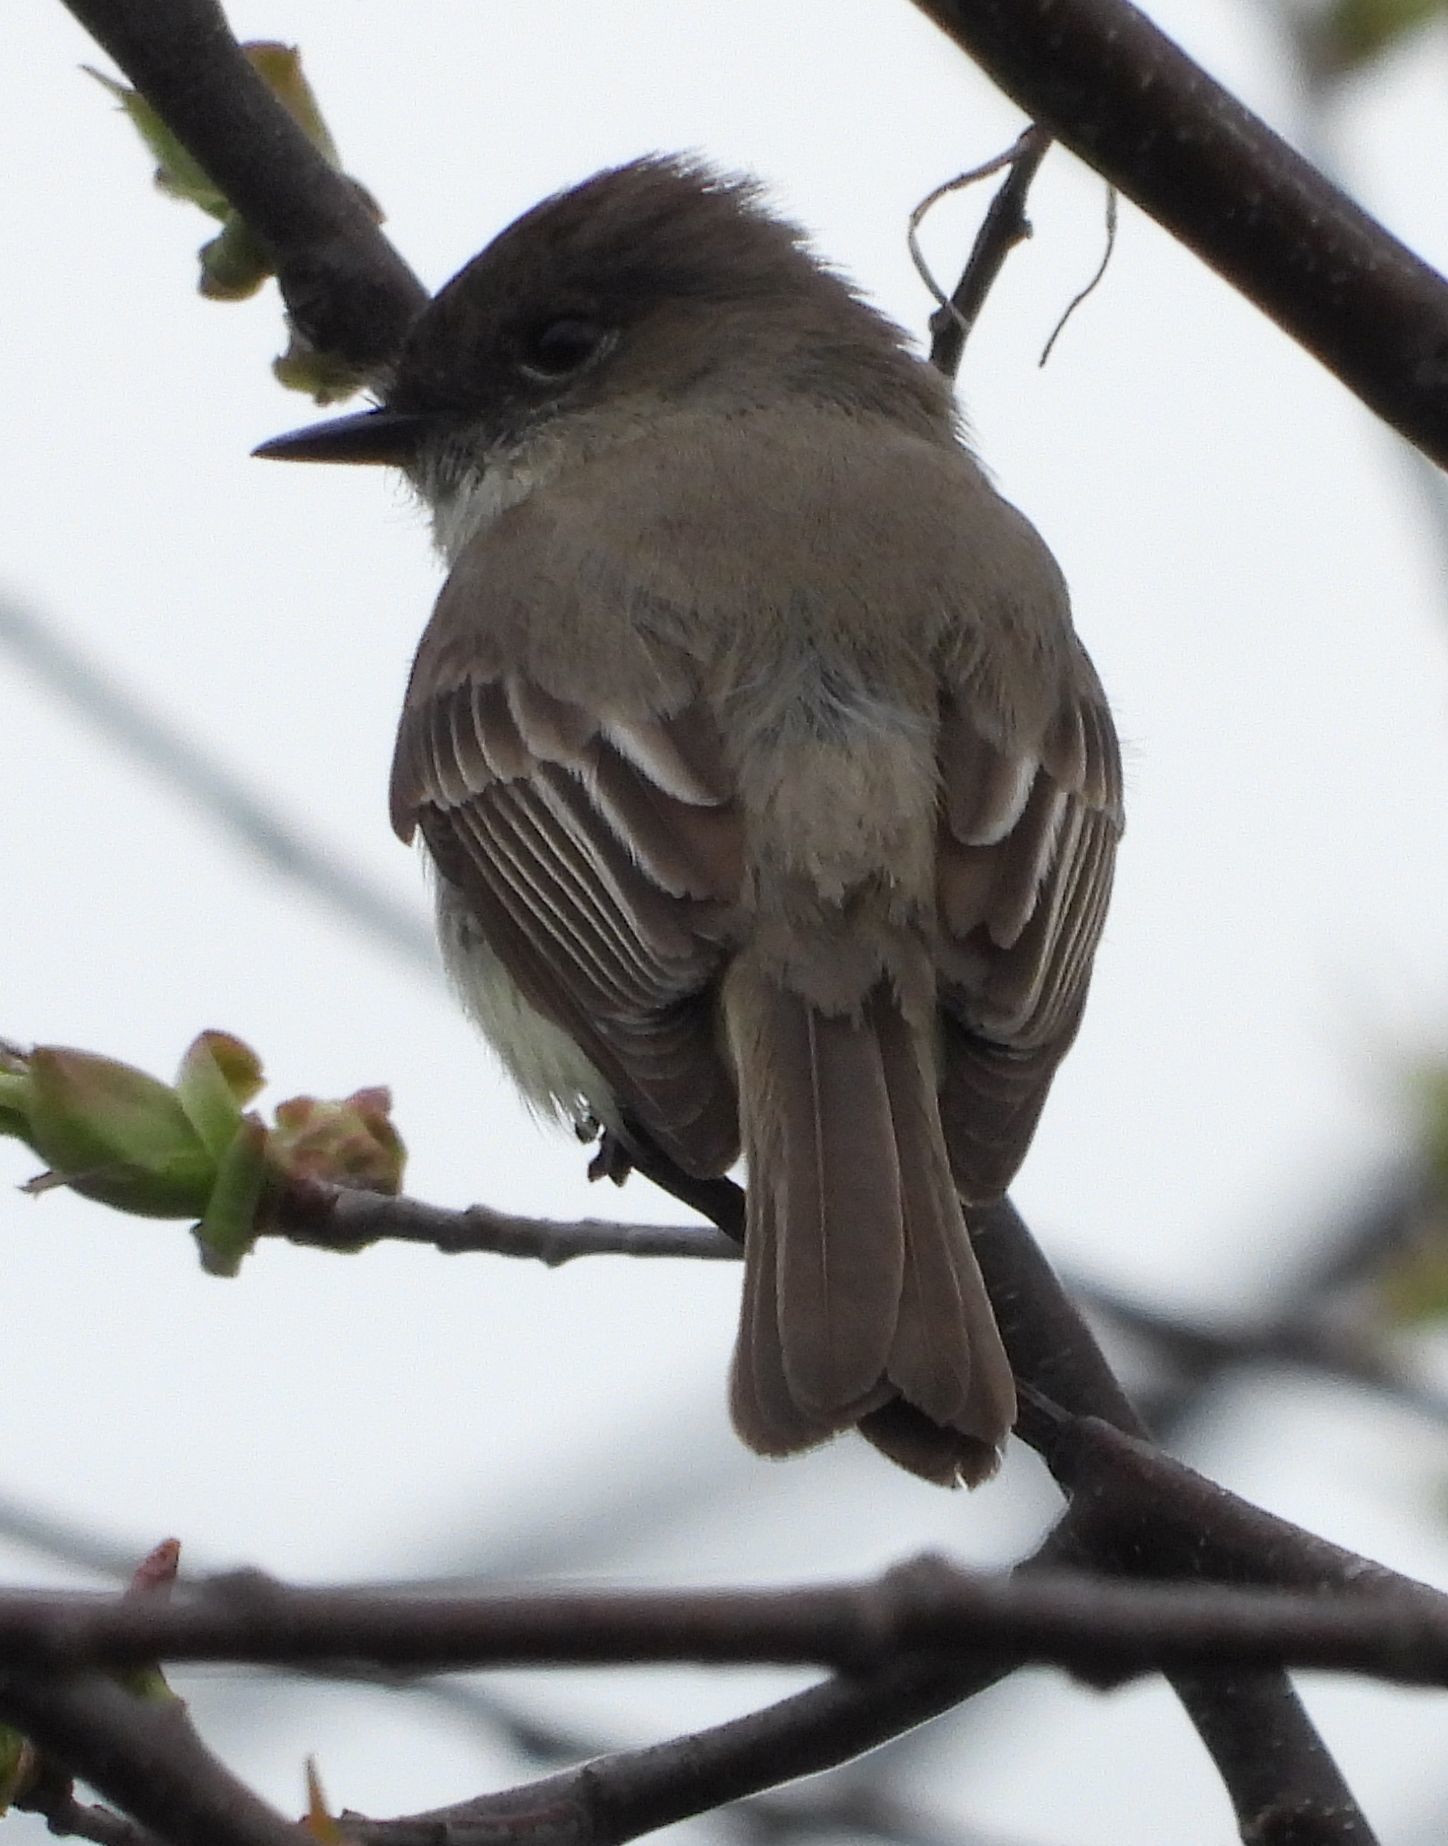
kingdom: Animalia
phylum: Chordata
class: Aves
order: Passeriformes
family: Tyrannidae
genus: Sayornis
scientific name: Sayornis phoebe
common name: Eastern phoebe
